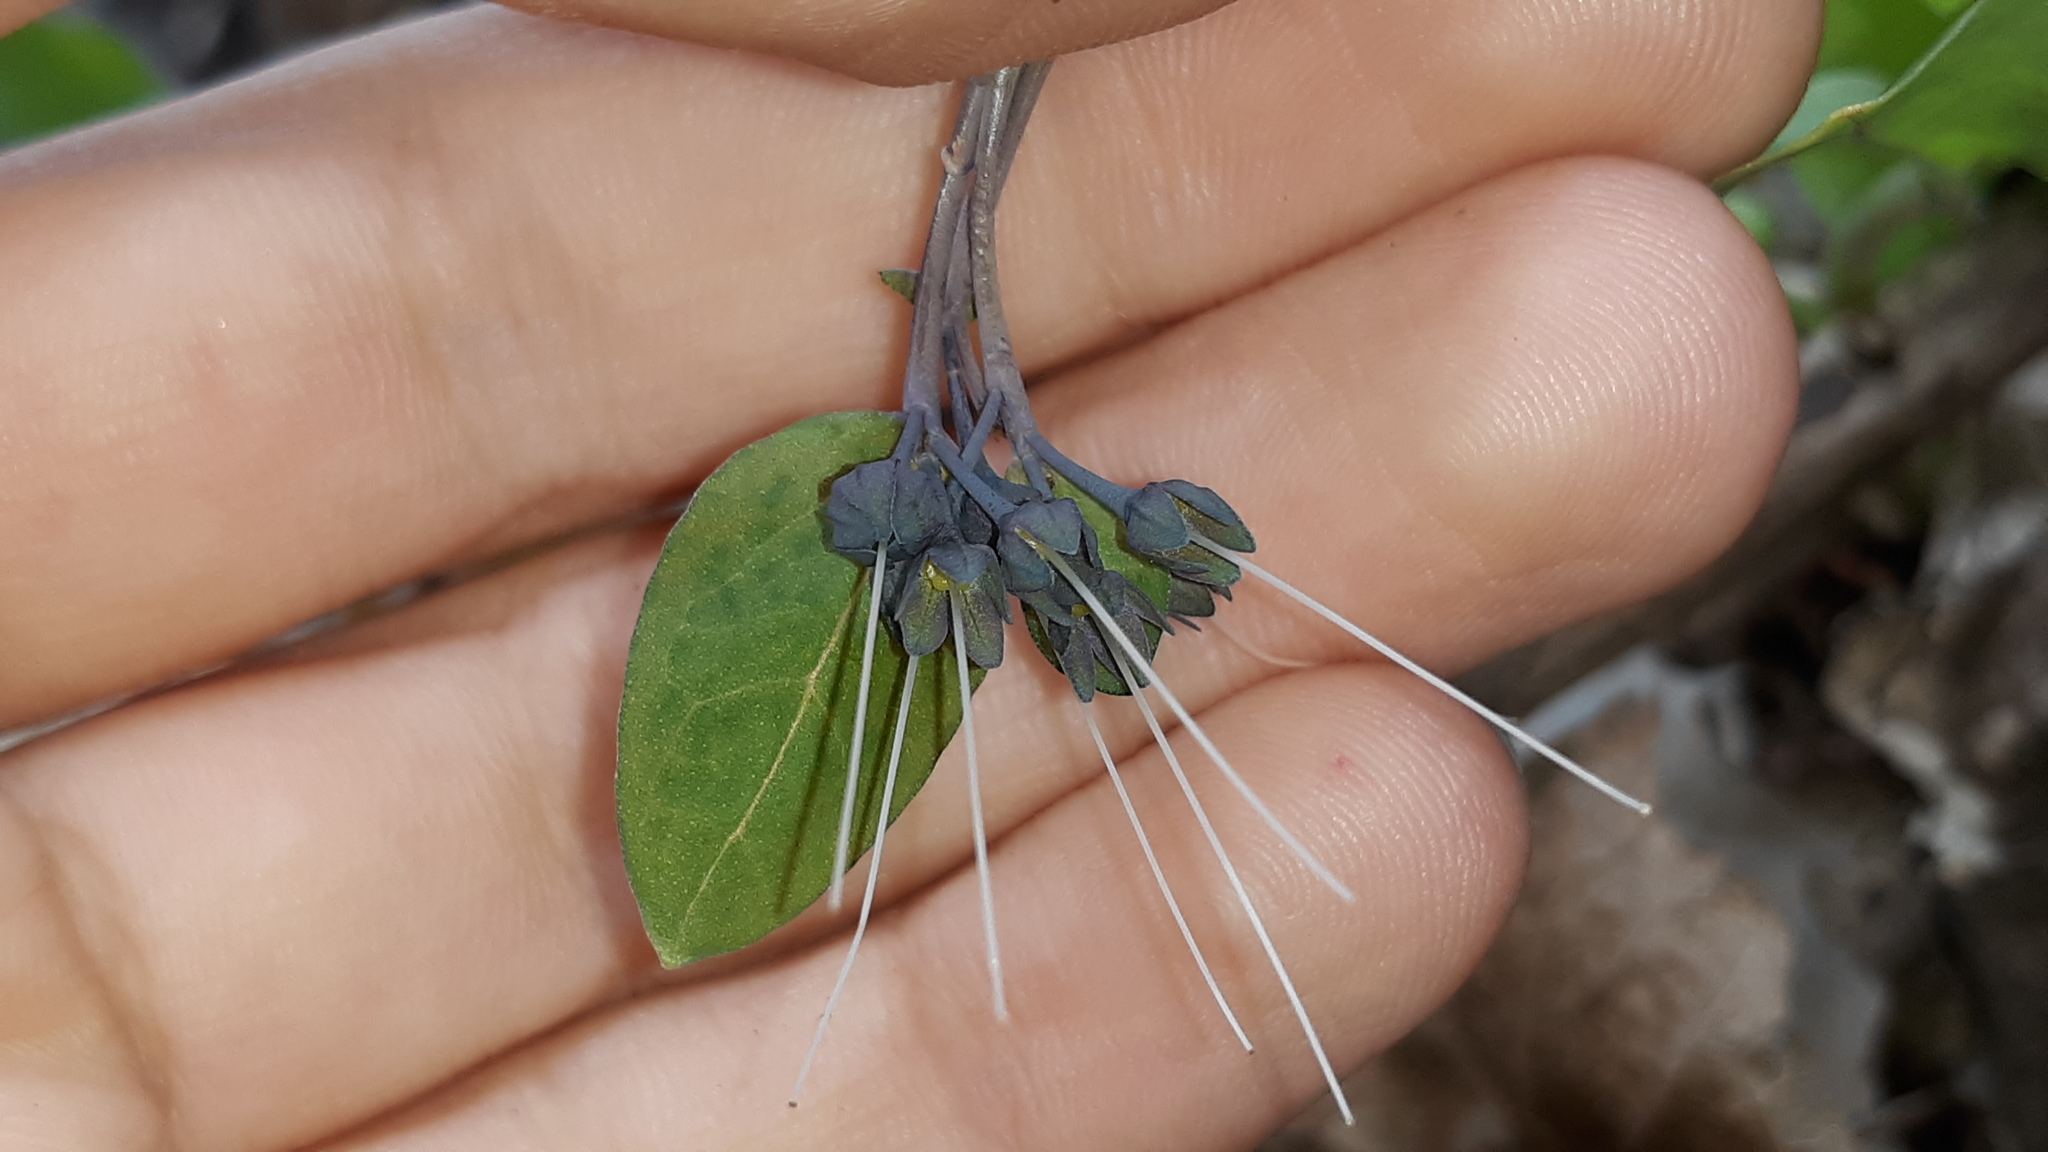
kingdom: Plantae
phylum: Tracheophyta
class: Magnoliopsida
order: Boraginales
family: Boraginaceae
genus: Mertensia
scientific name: Mertensia virginica
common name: Virginia bluebells
